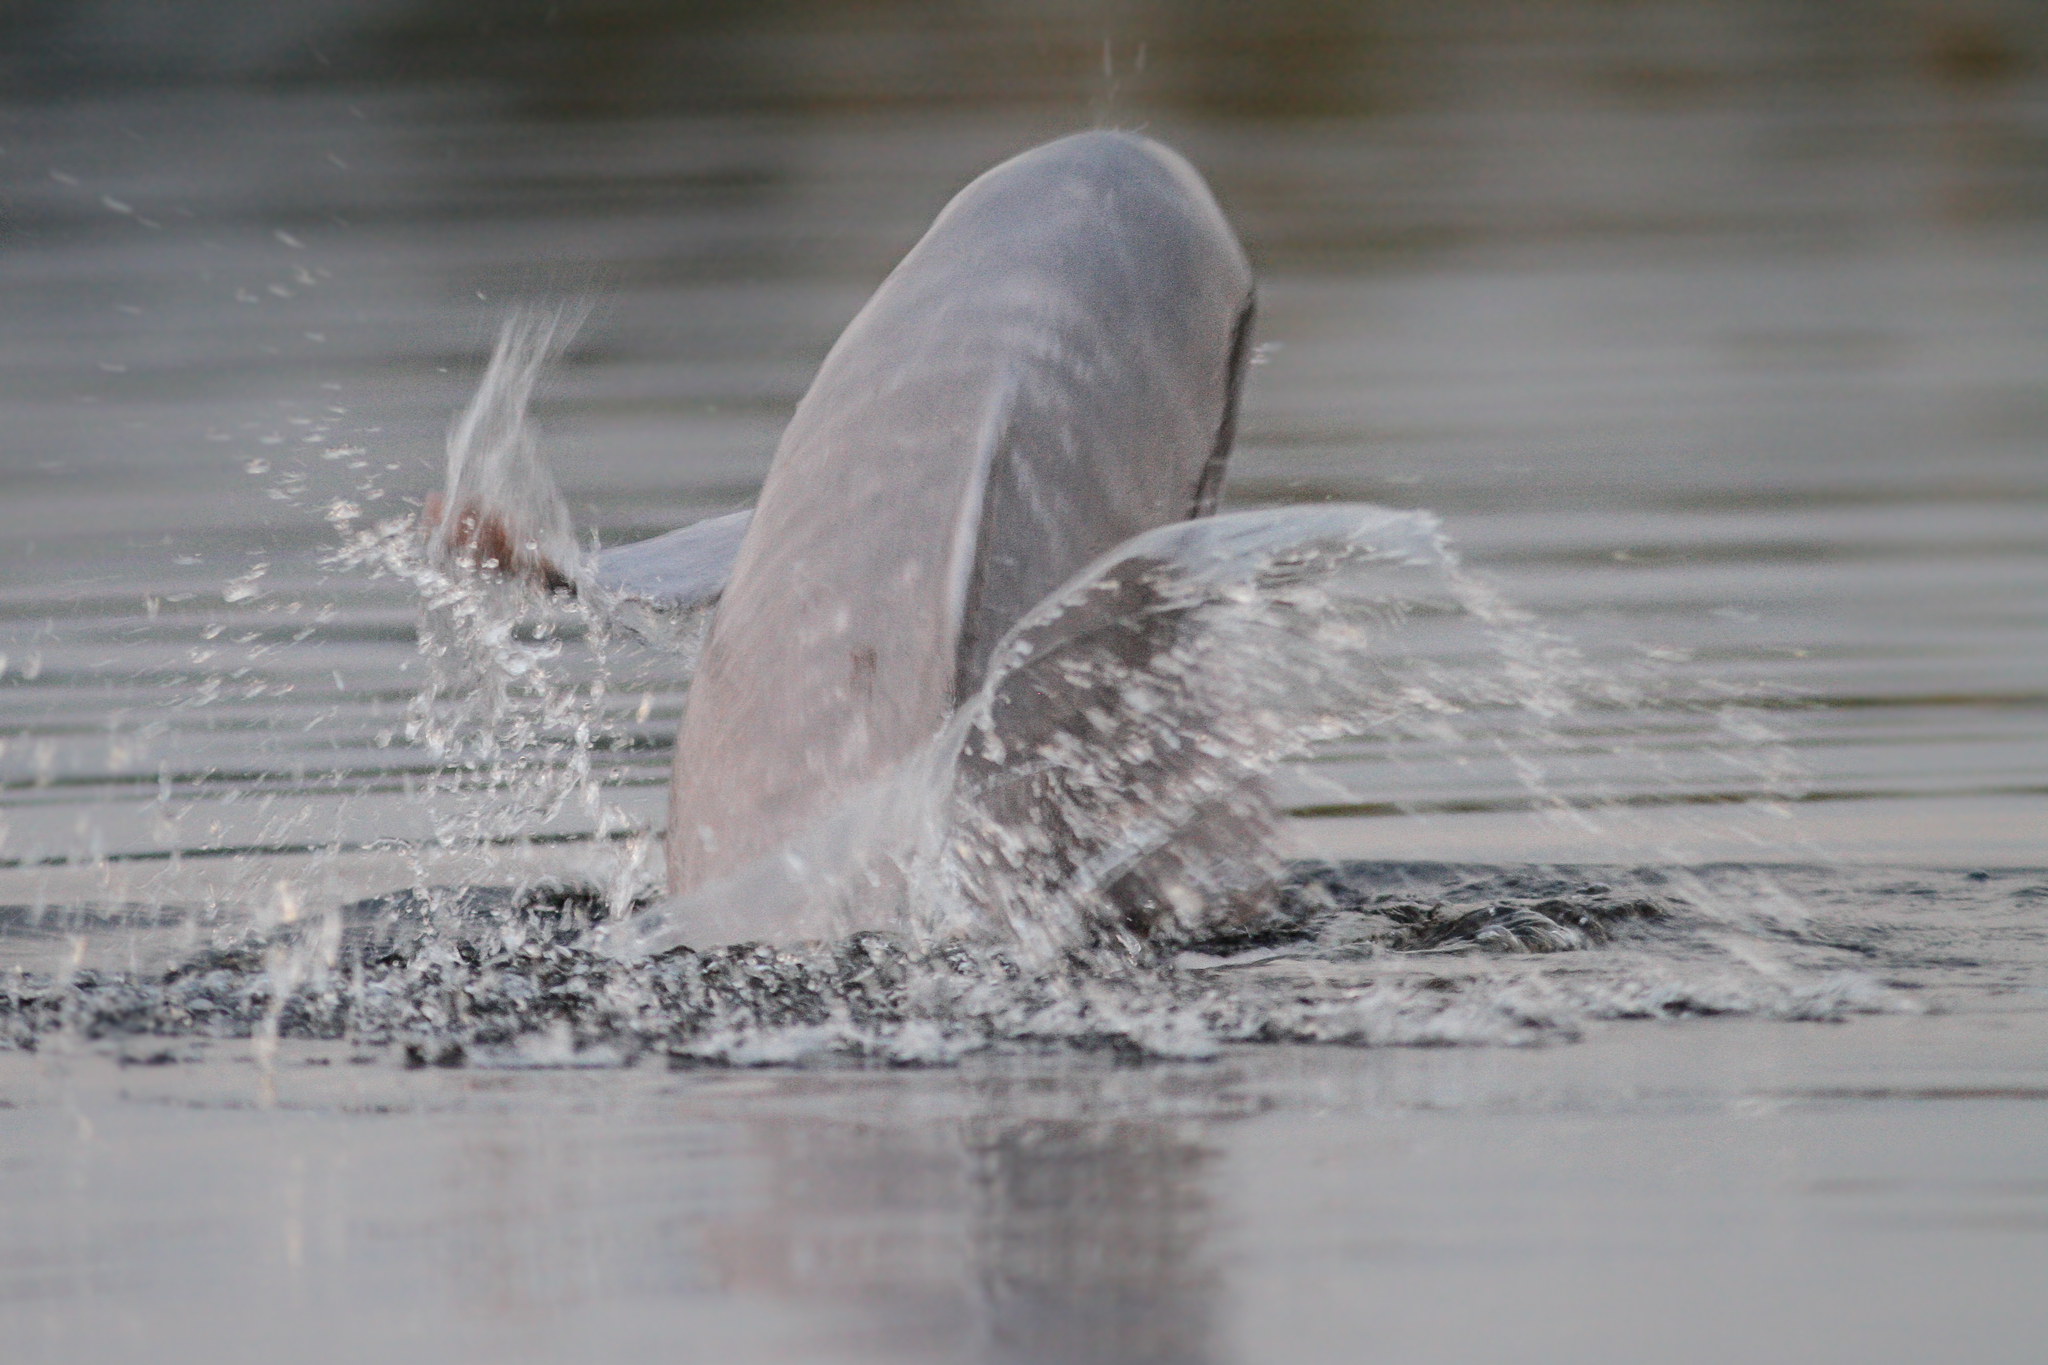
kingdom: Animalia
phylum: Chordata
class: Mammalia
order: Cetacea
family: Iniidae
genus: Inia
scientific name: Inia geoffrensis
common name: Amazon river dolphin
